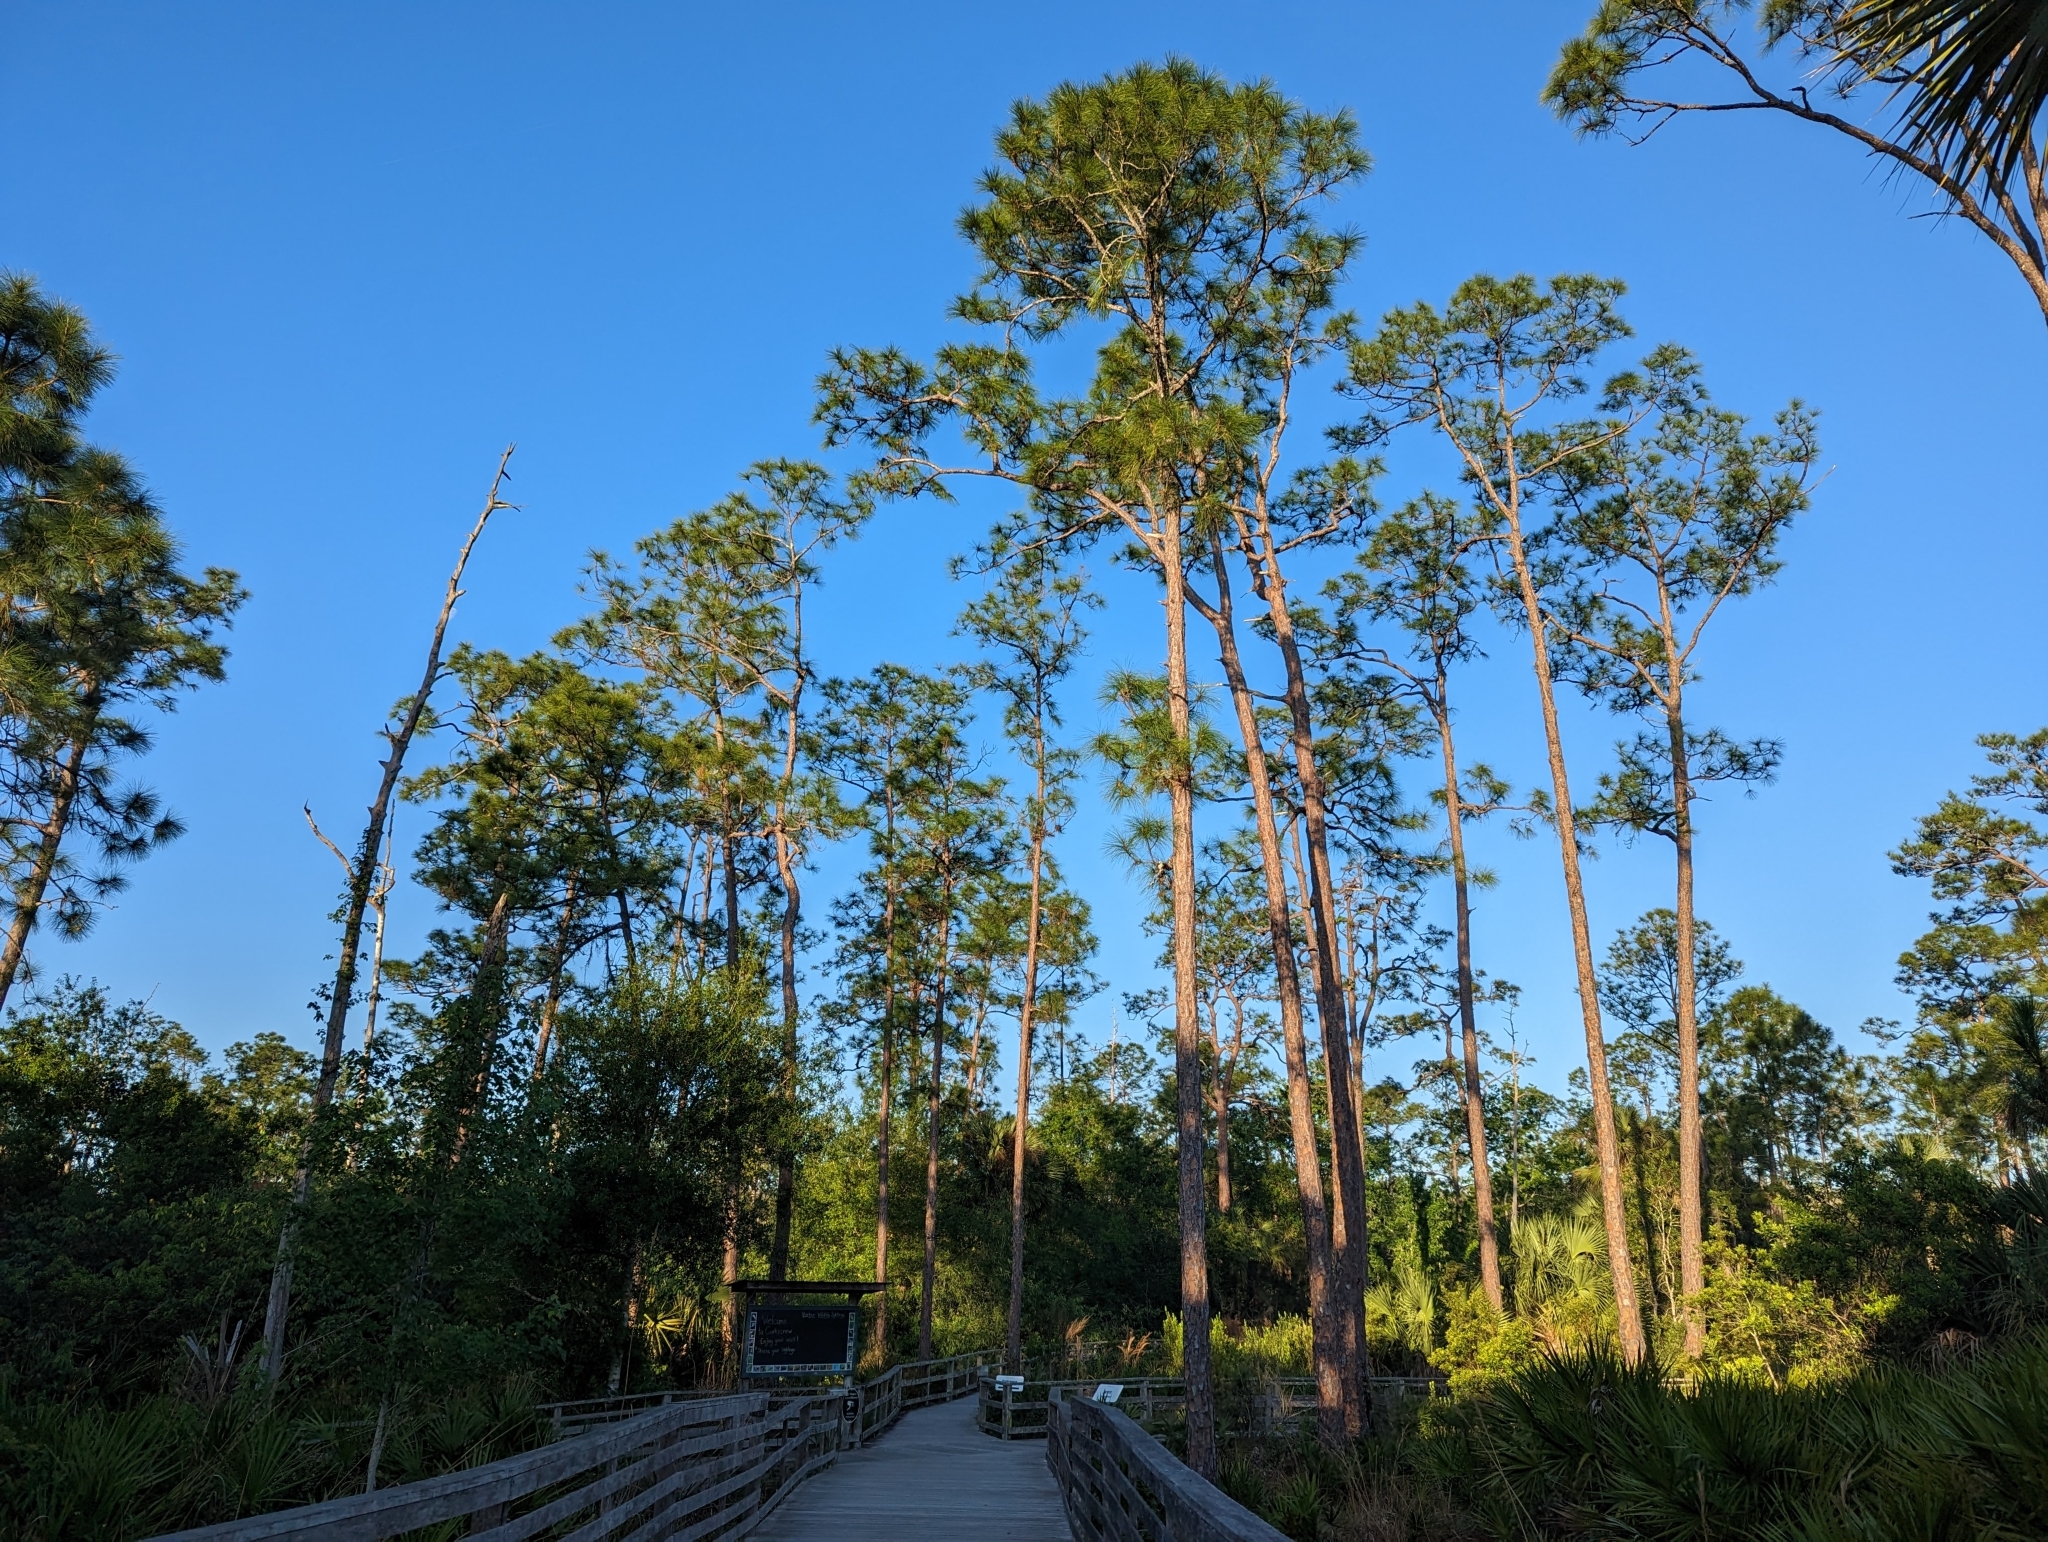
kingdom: Plantae
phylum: Tracheophyta
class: Pinopsida
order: Pinales
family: Pinaceae
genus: Pinus
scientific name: Pinus elliottii
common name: Slash pine
